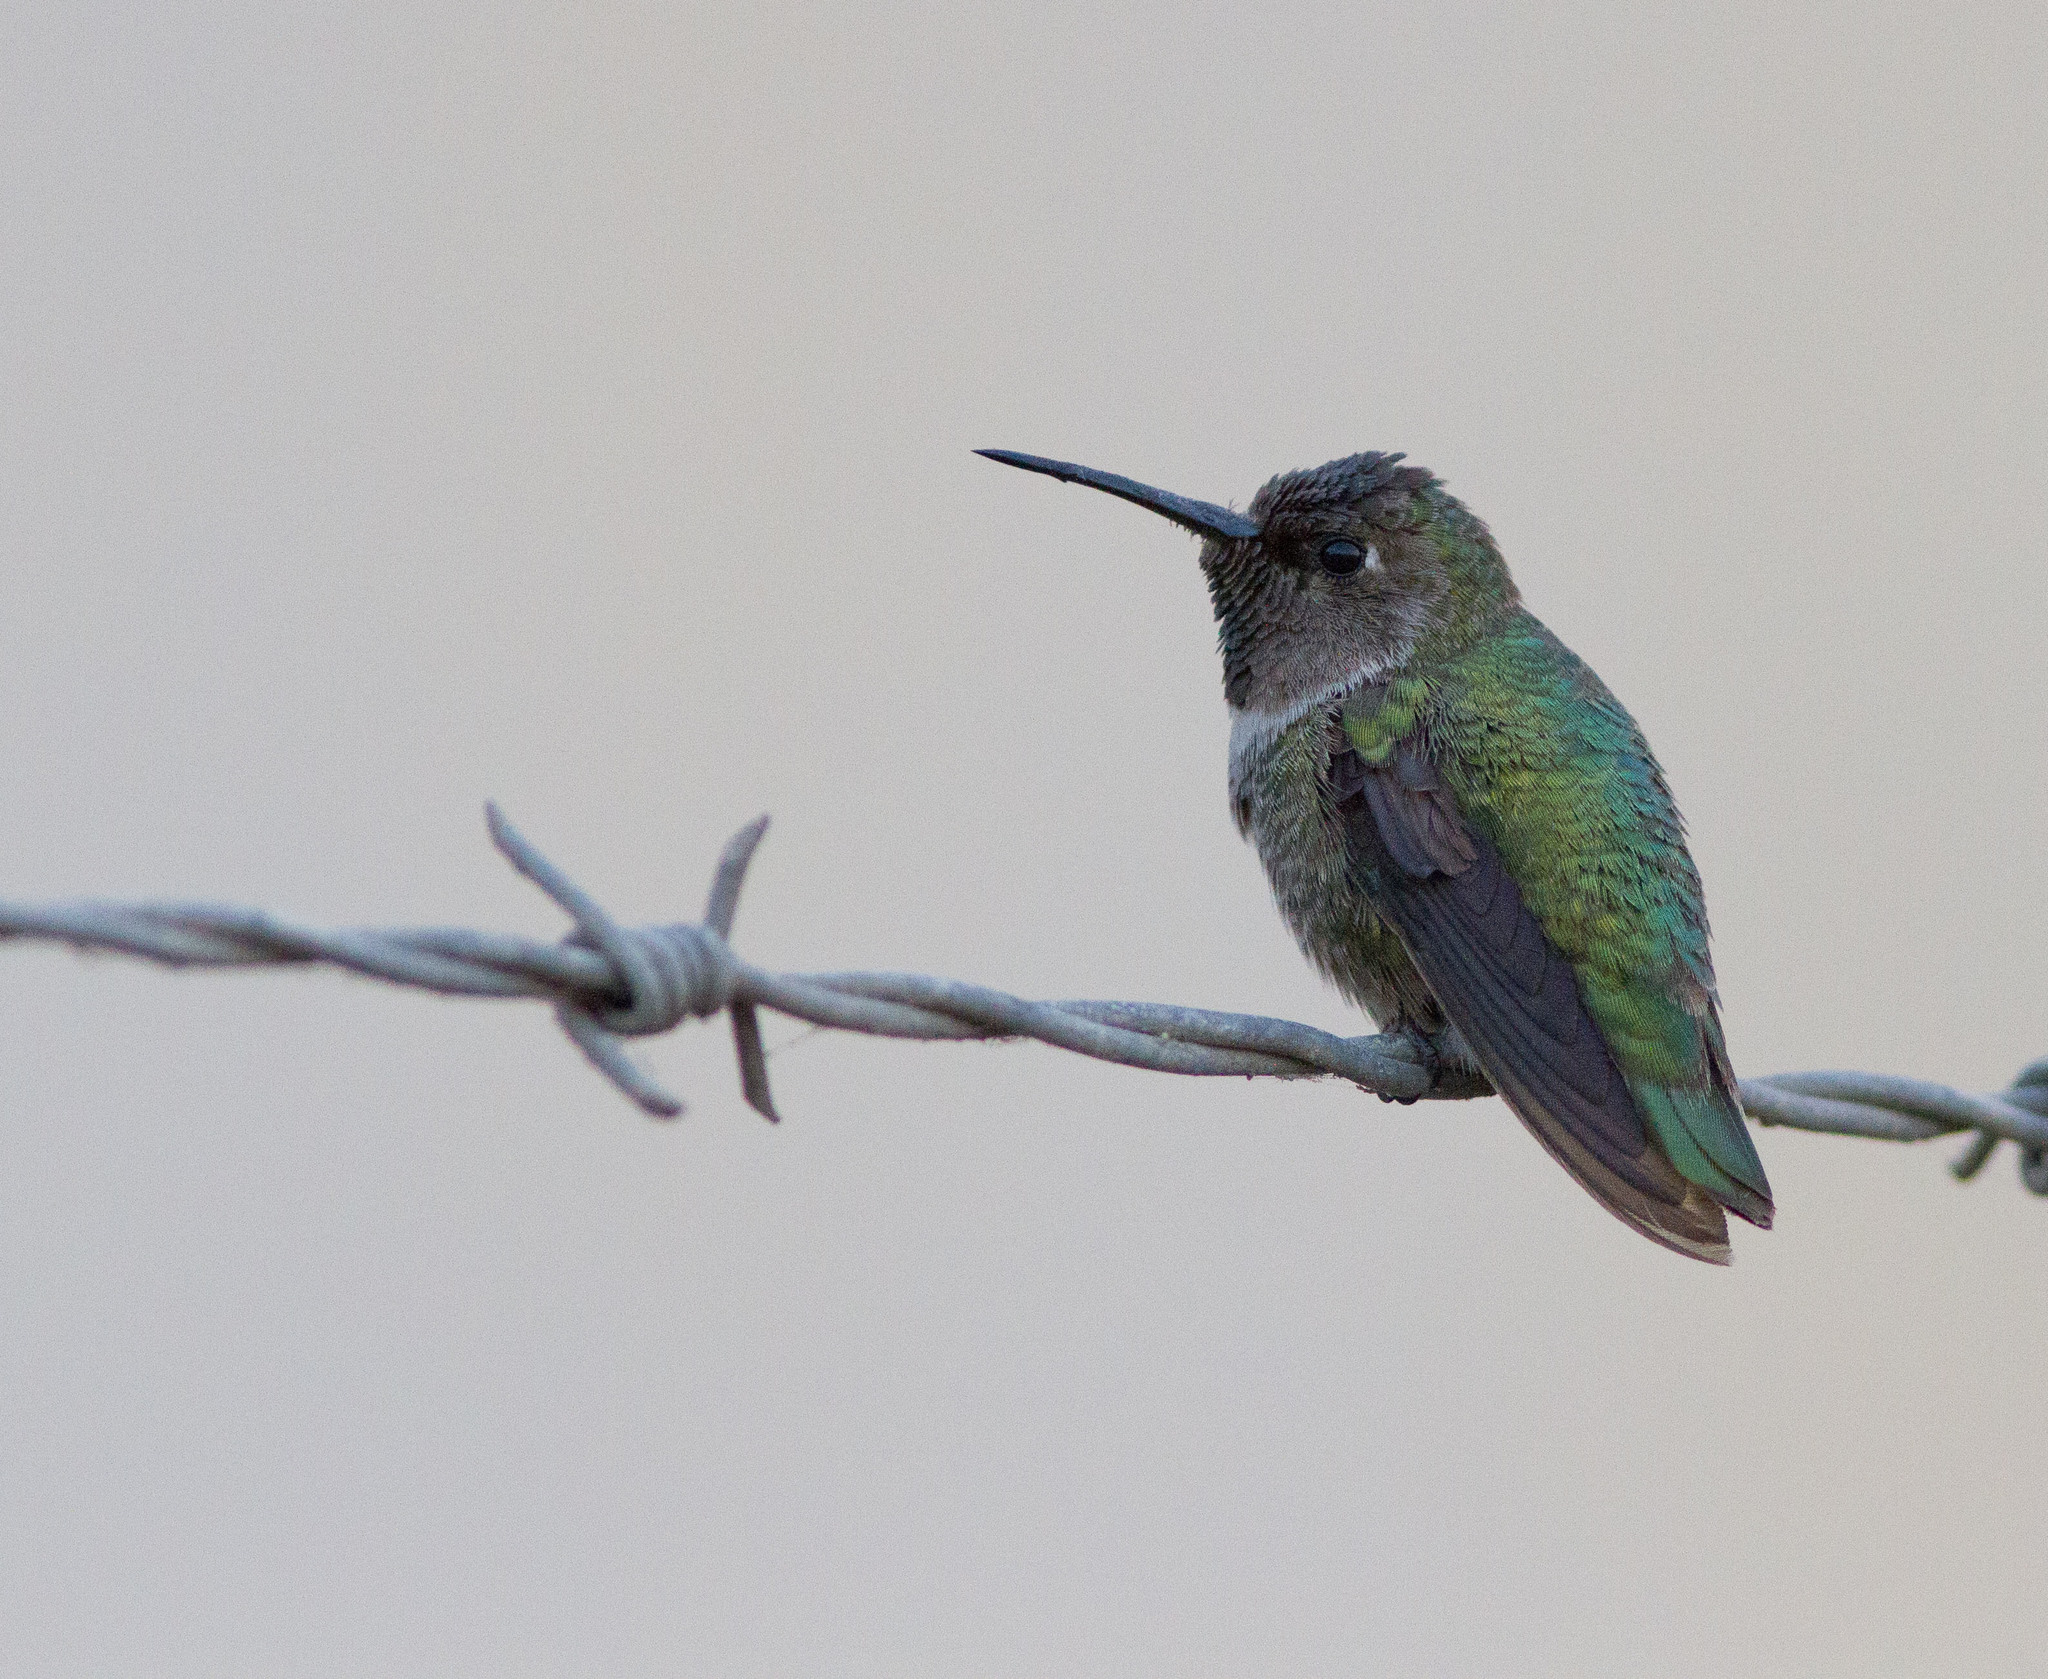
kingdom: Animalia
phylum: Chordata
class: Aves
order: Apodiformes
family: Trochilidae
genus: Calypte
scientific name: Calypte anna
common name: Anna's hummingbird
